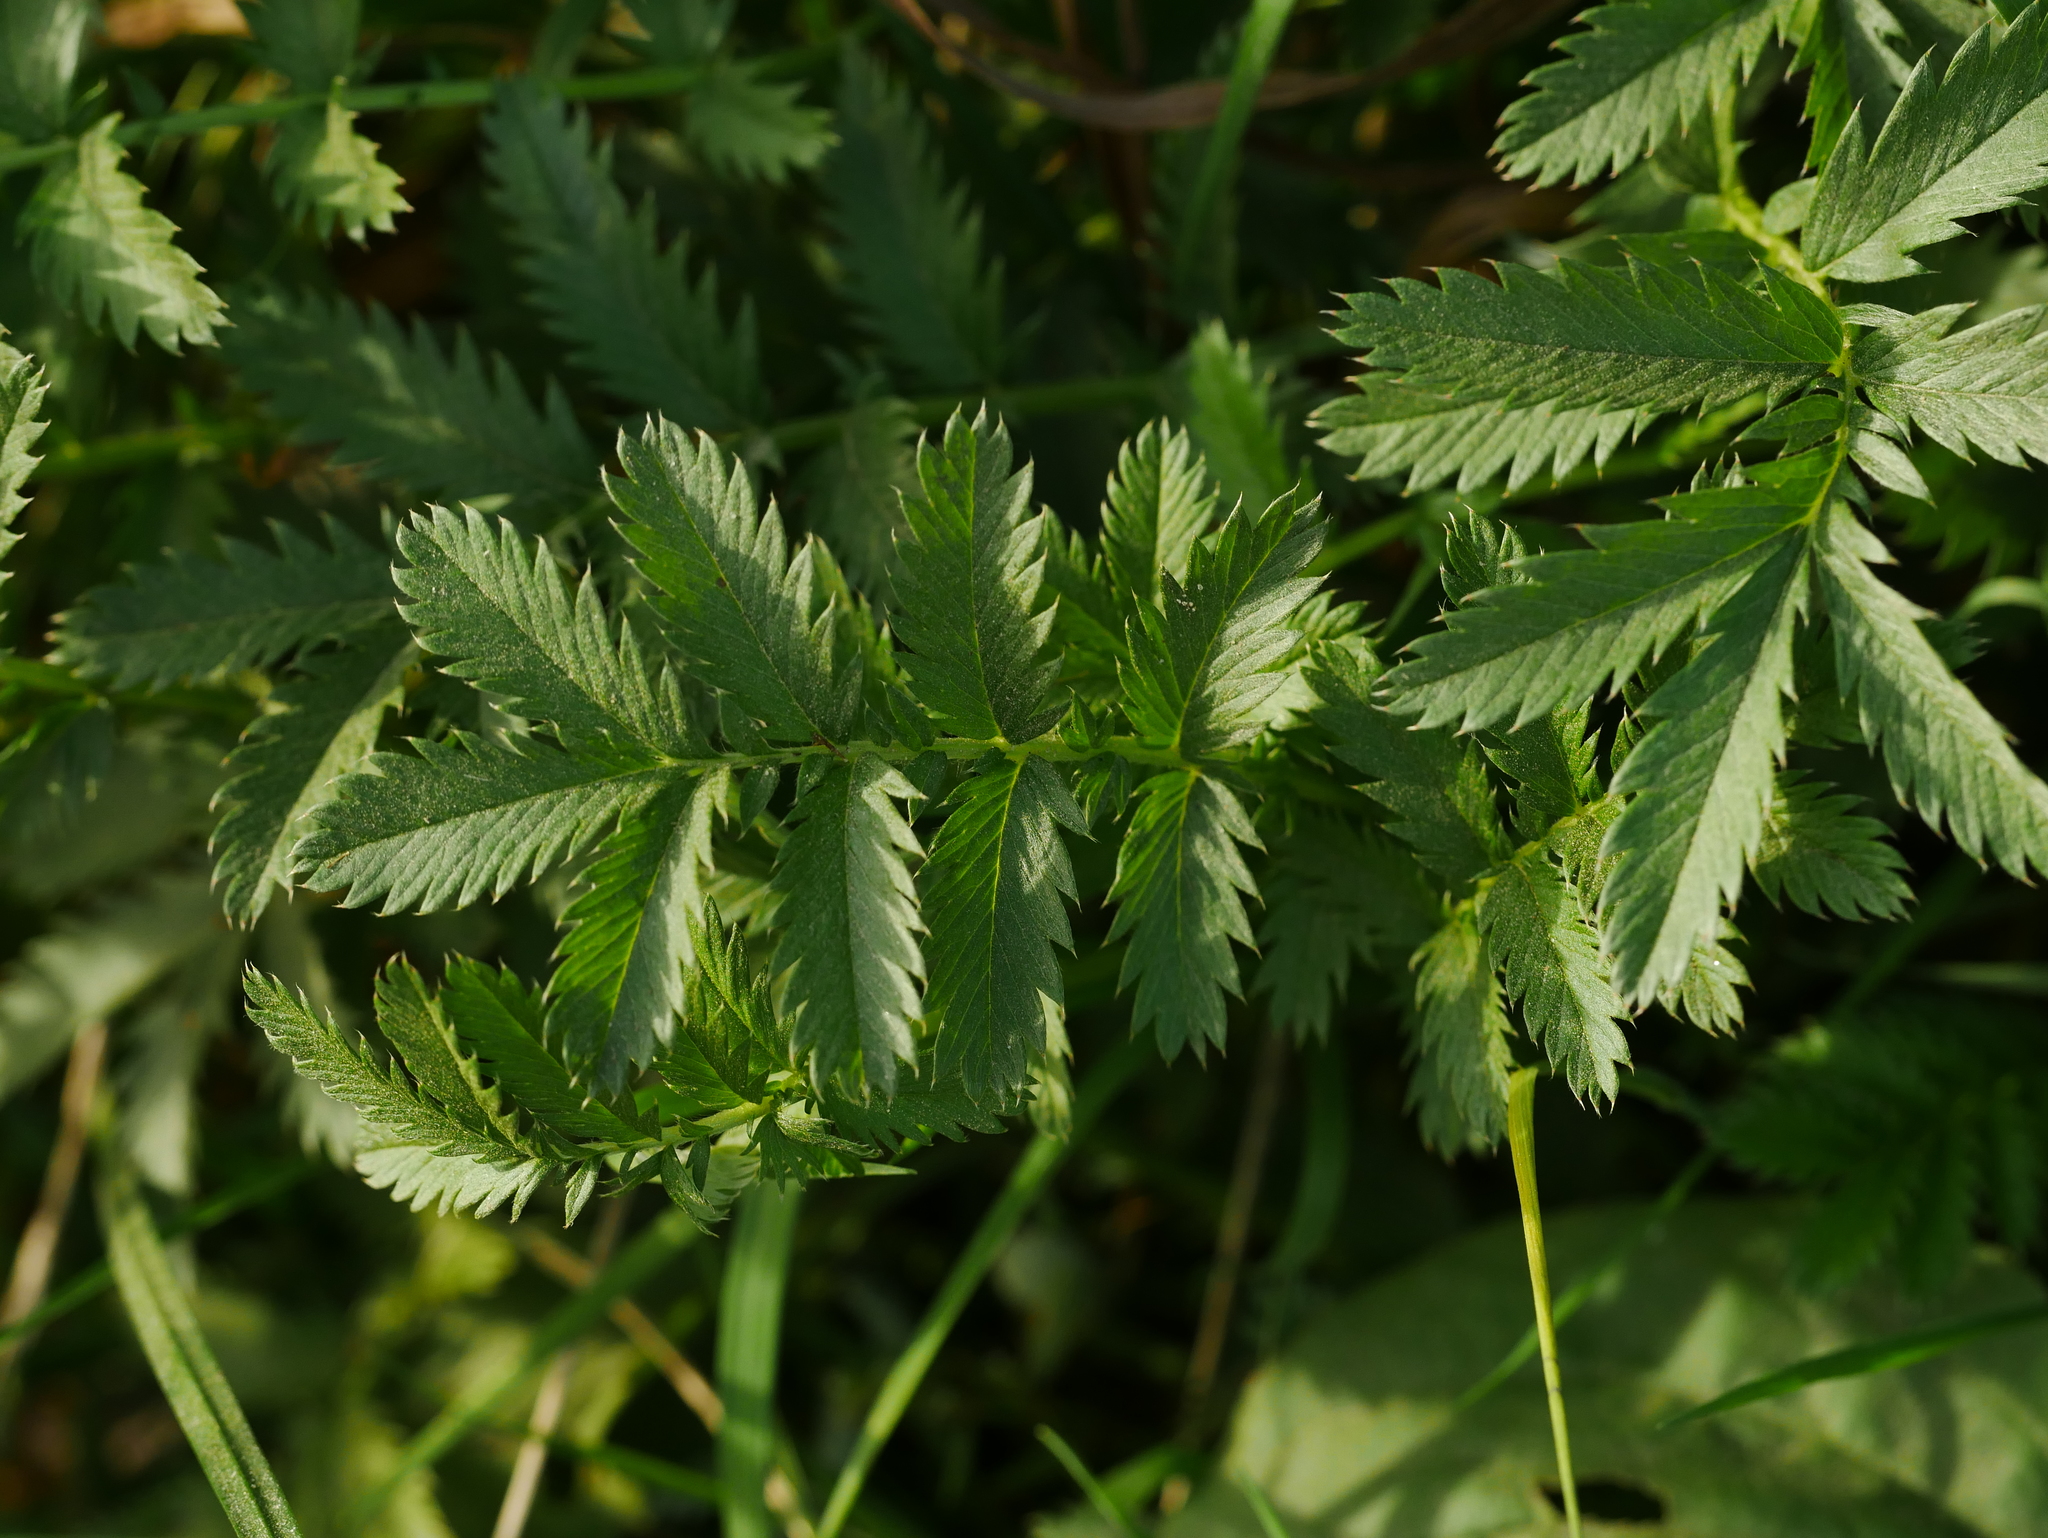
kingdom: Plantae
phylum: Tracheophyta
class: Magnoliopsida
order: Rosales
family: Rosaceae
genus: Argentina
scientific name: Argentina anserina
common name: Common silverweed
